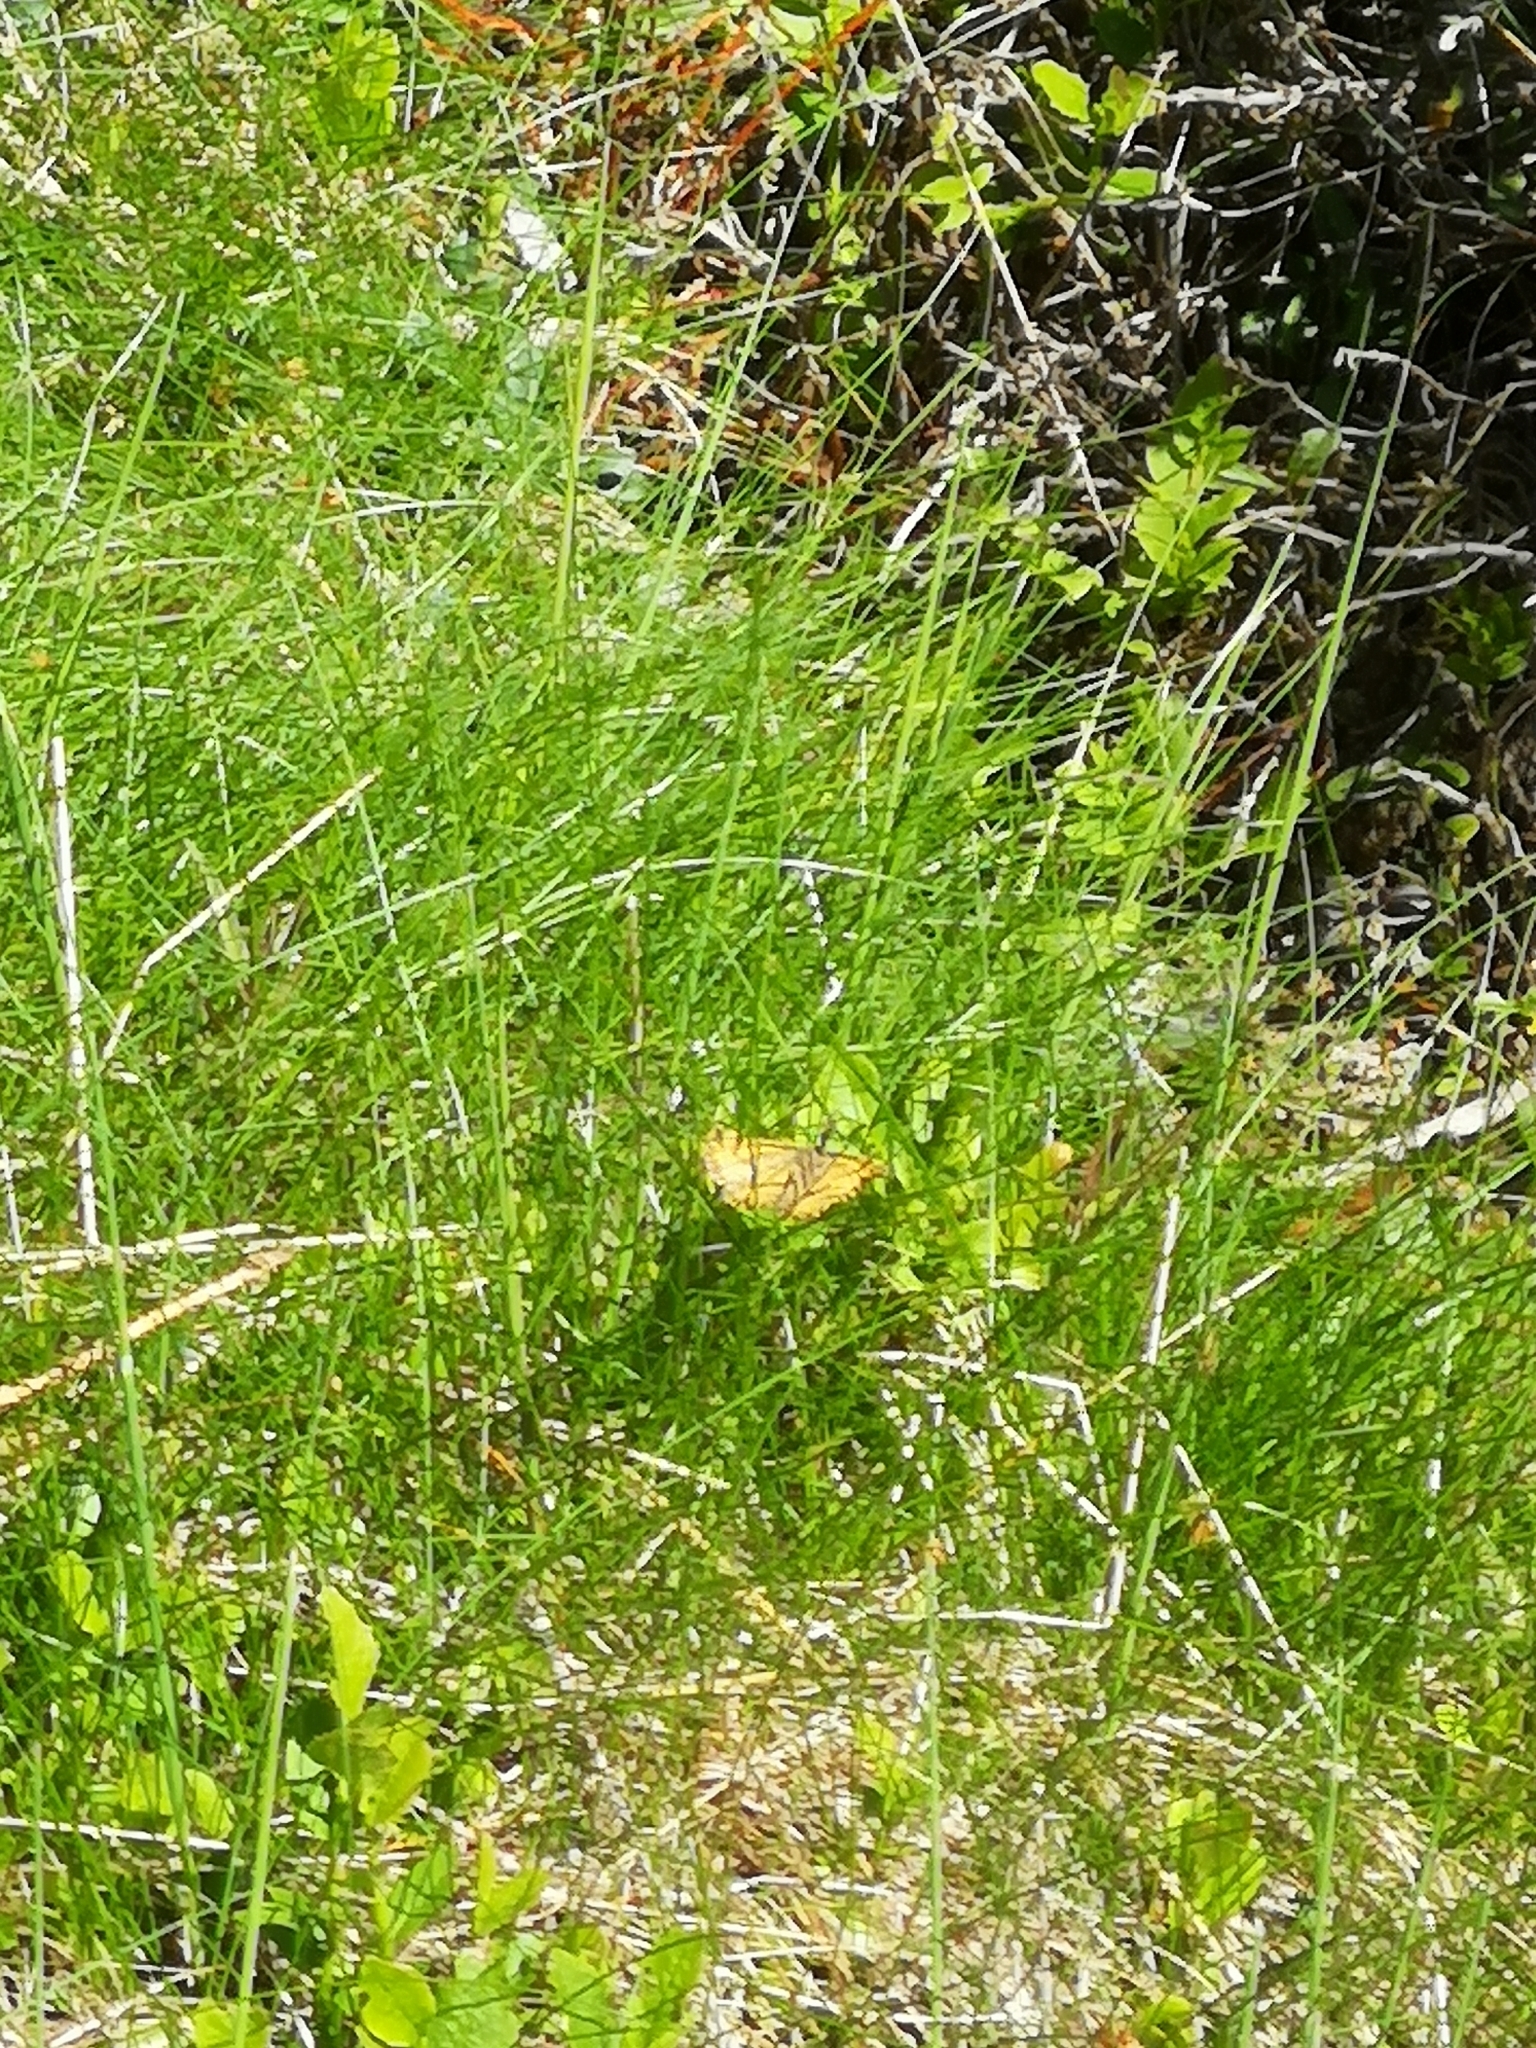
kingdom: Animalia
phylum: Arthropoda
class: Insecta
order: Lepidoptera
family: Geometridae
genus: Pseudopanthera
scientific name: Pseudopanthera macularia
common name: Speckled yellow
